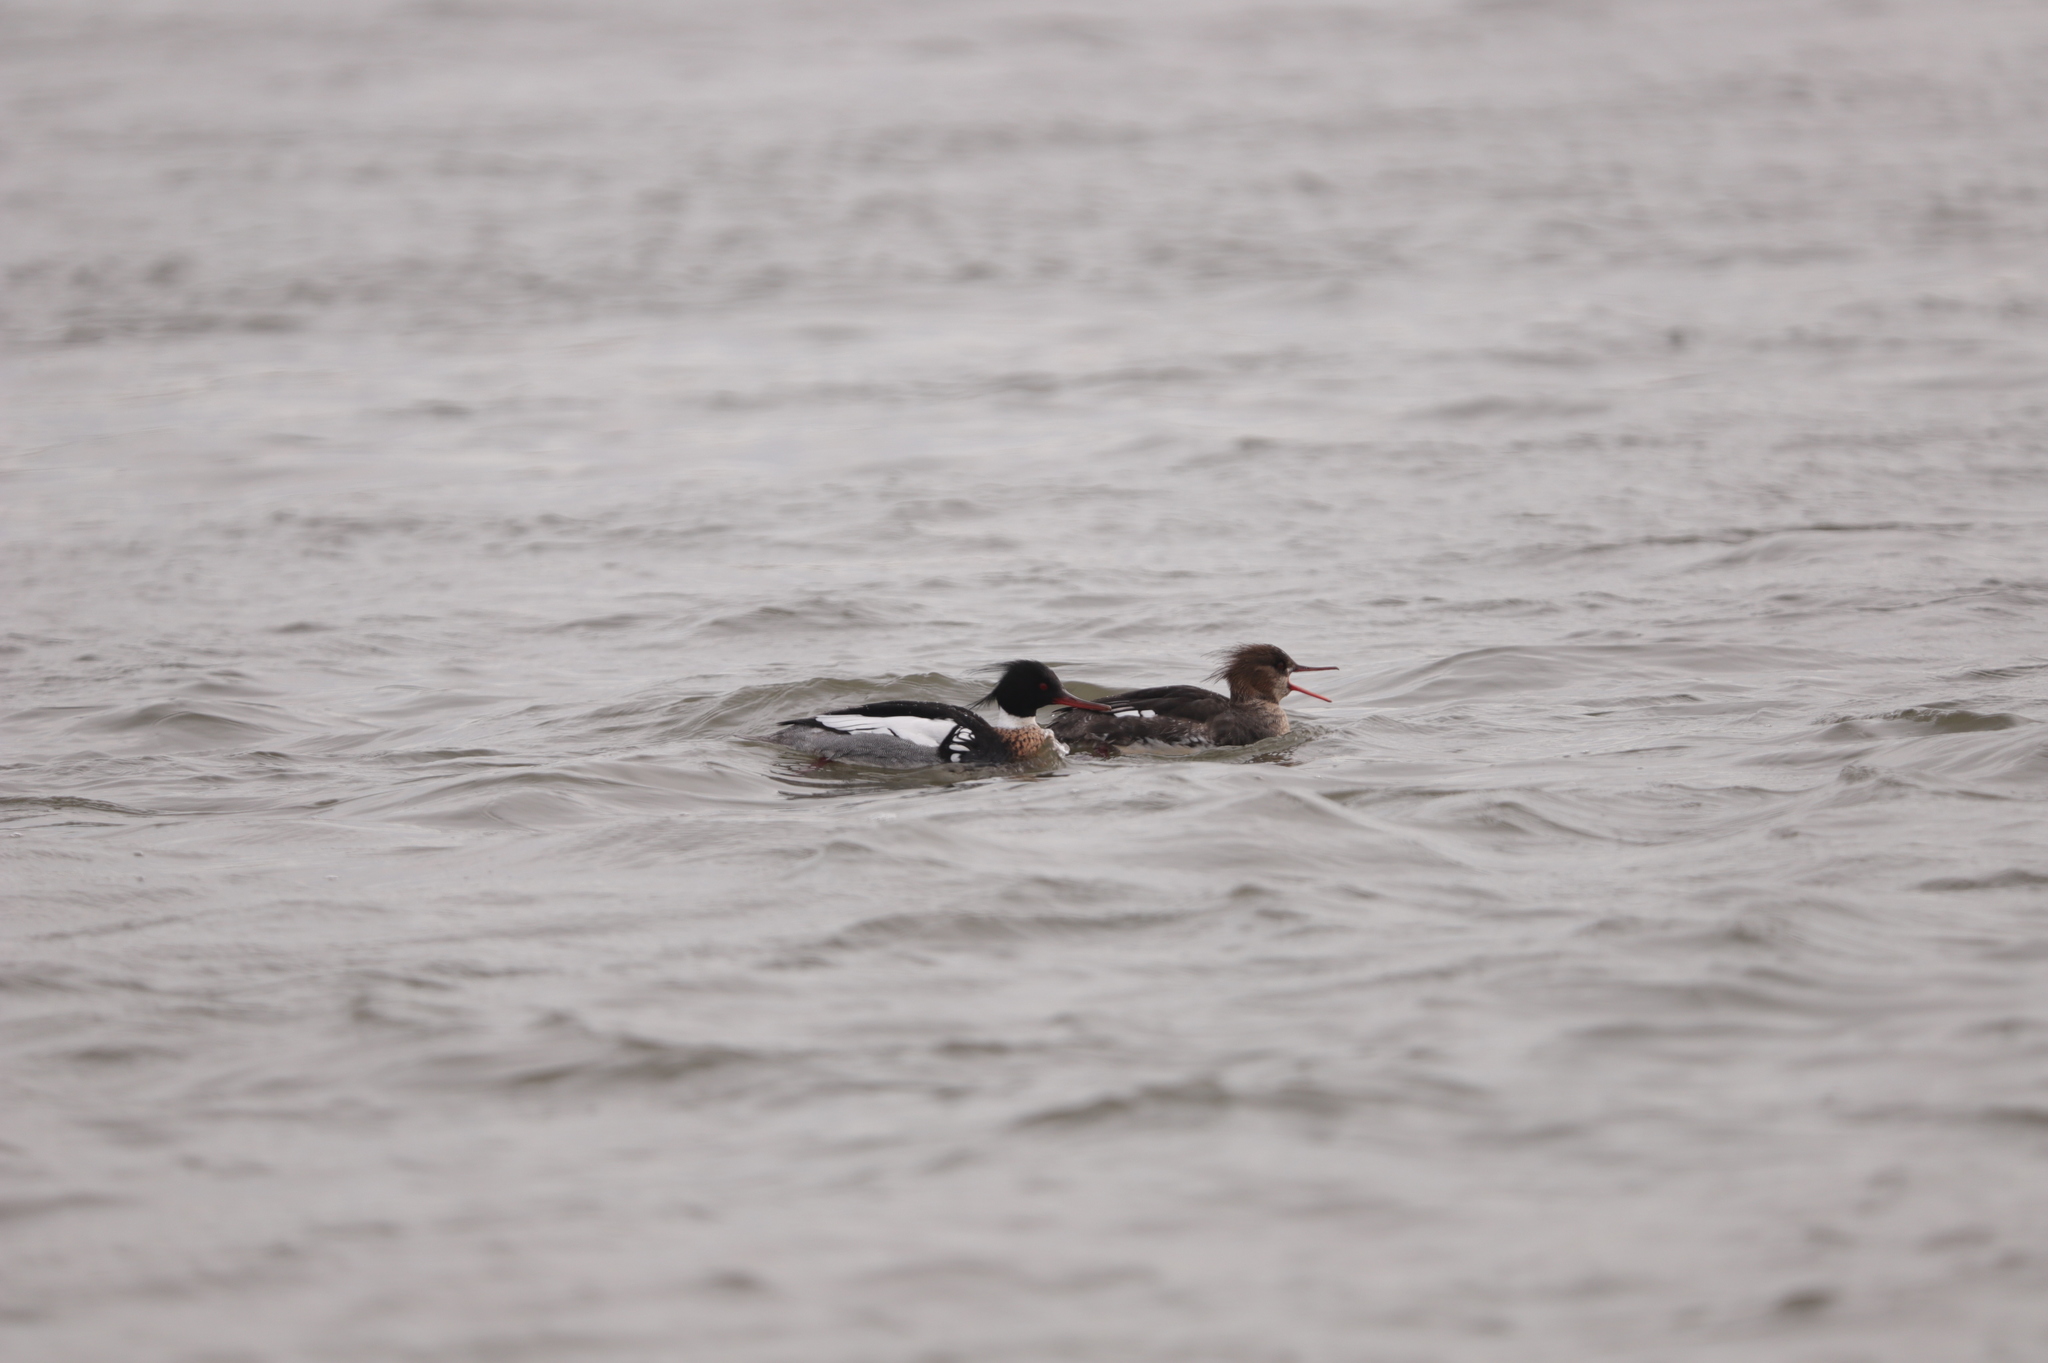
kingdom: Animalia
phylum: Chordata
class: Aves
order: Anseriformes
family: Anatidae
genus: Mergus
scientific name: Mergus serrator
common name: Red-breasted merganser
